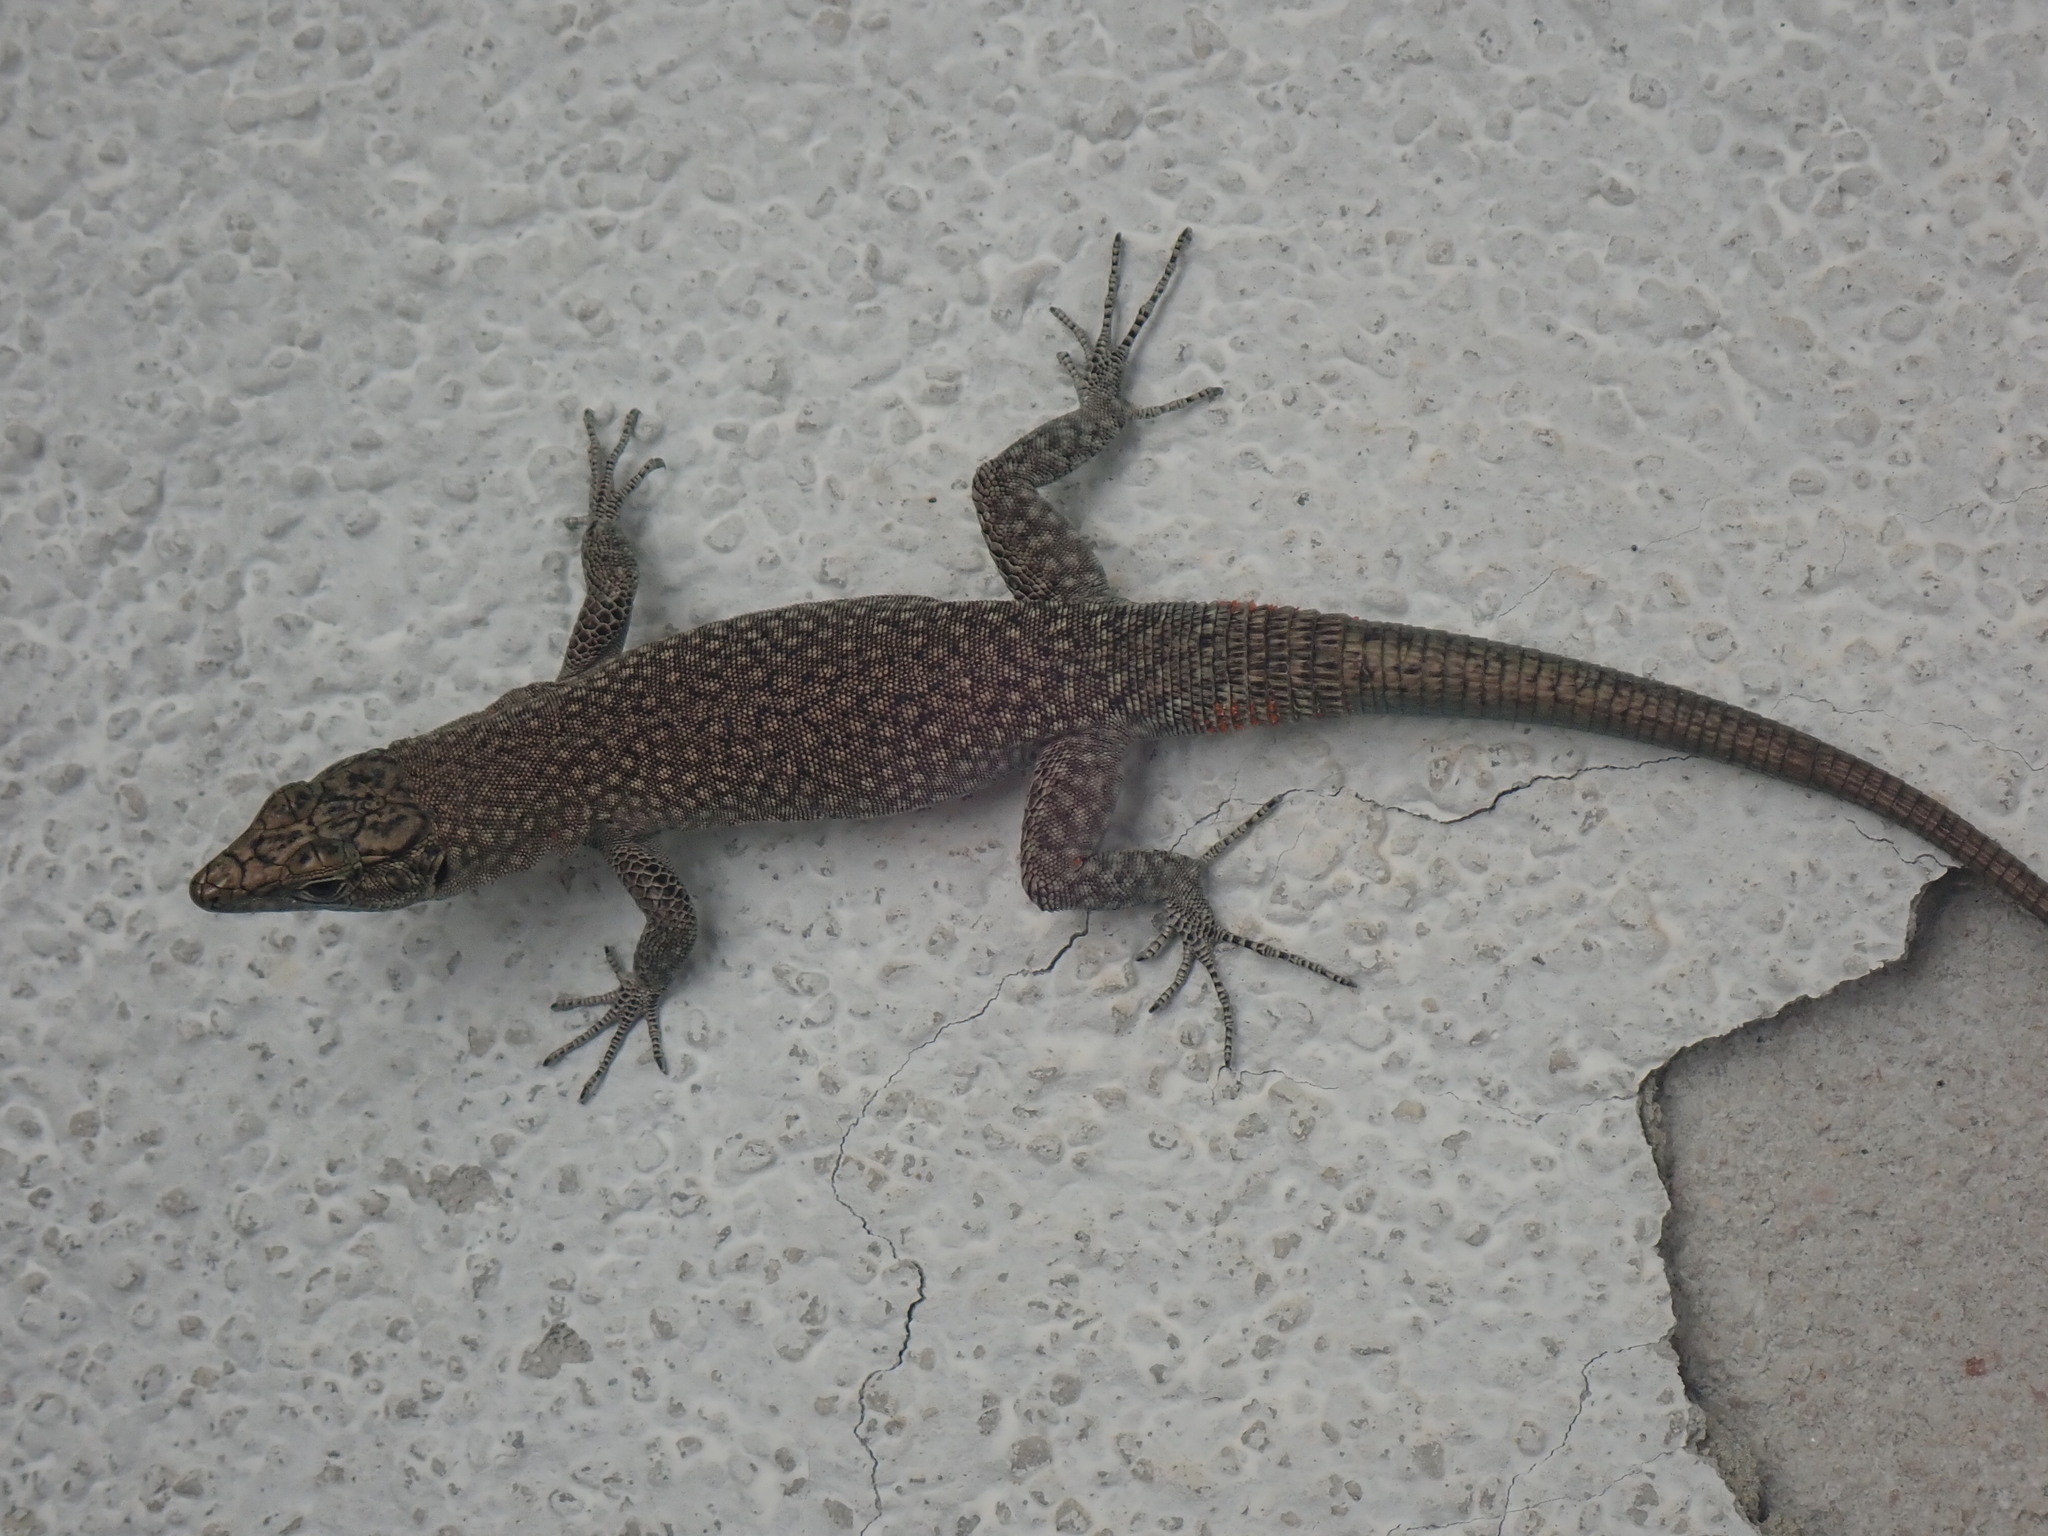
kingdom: Animalia
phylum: Chordata
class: Squamata
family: Lacertidae
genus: Dalmatolacerta
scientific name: Dalmatolacerta oxycephala
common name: Sharp-snouted rock lizard
